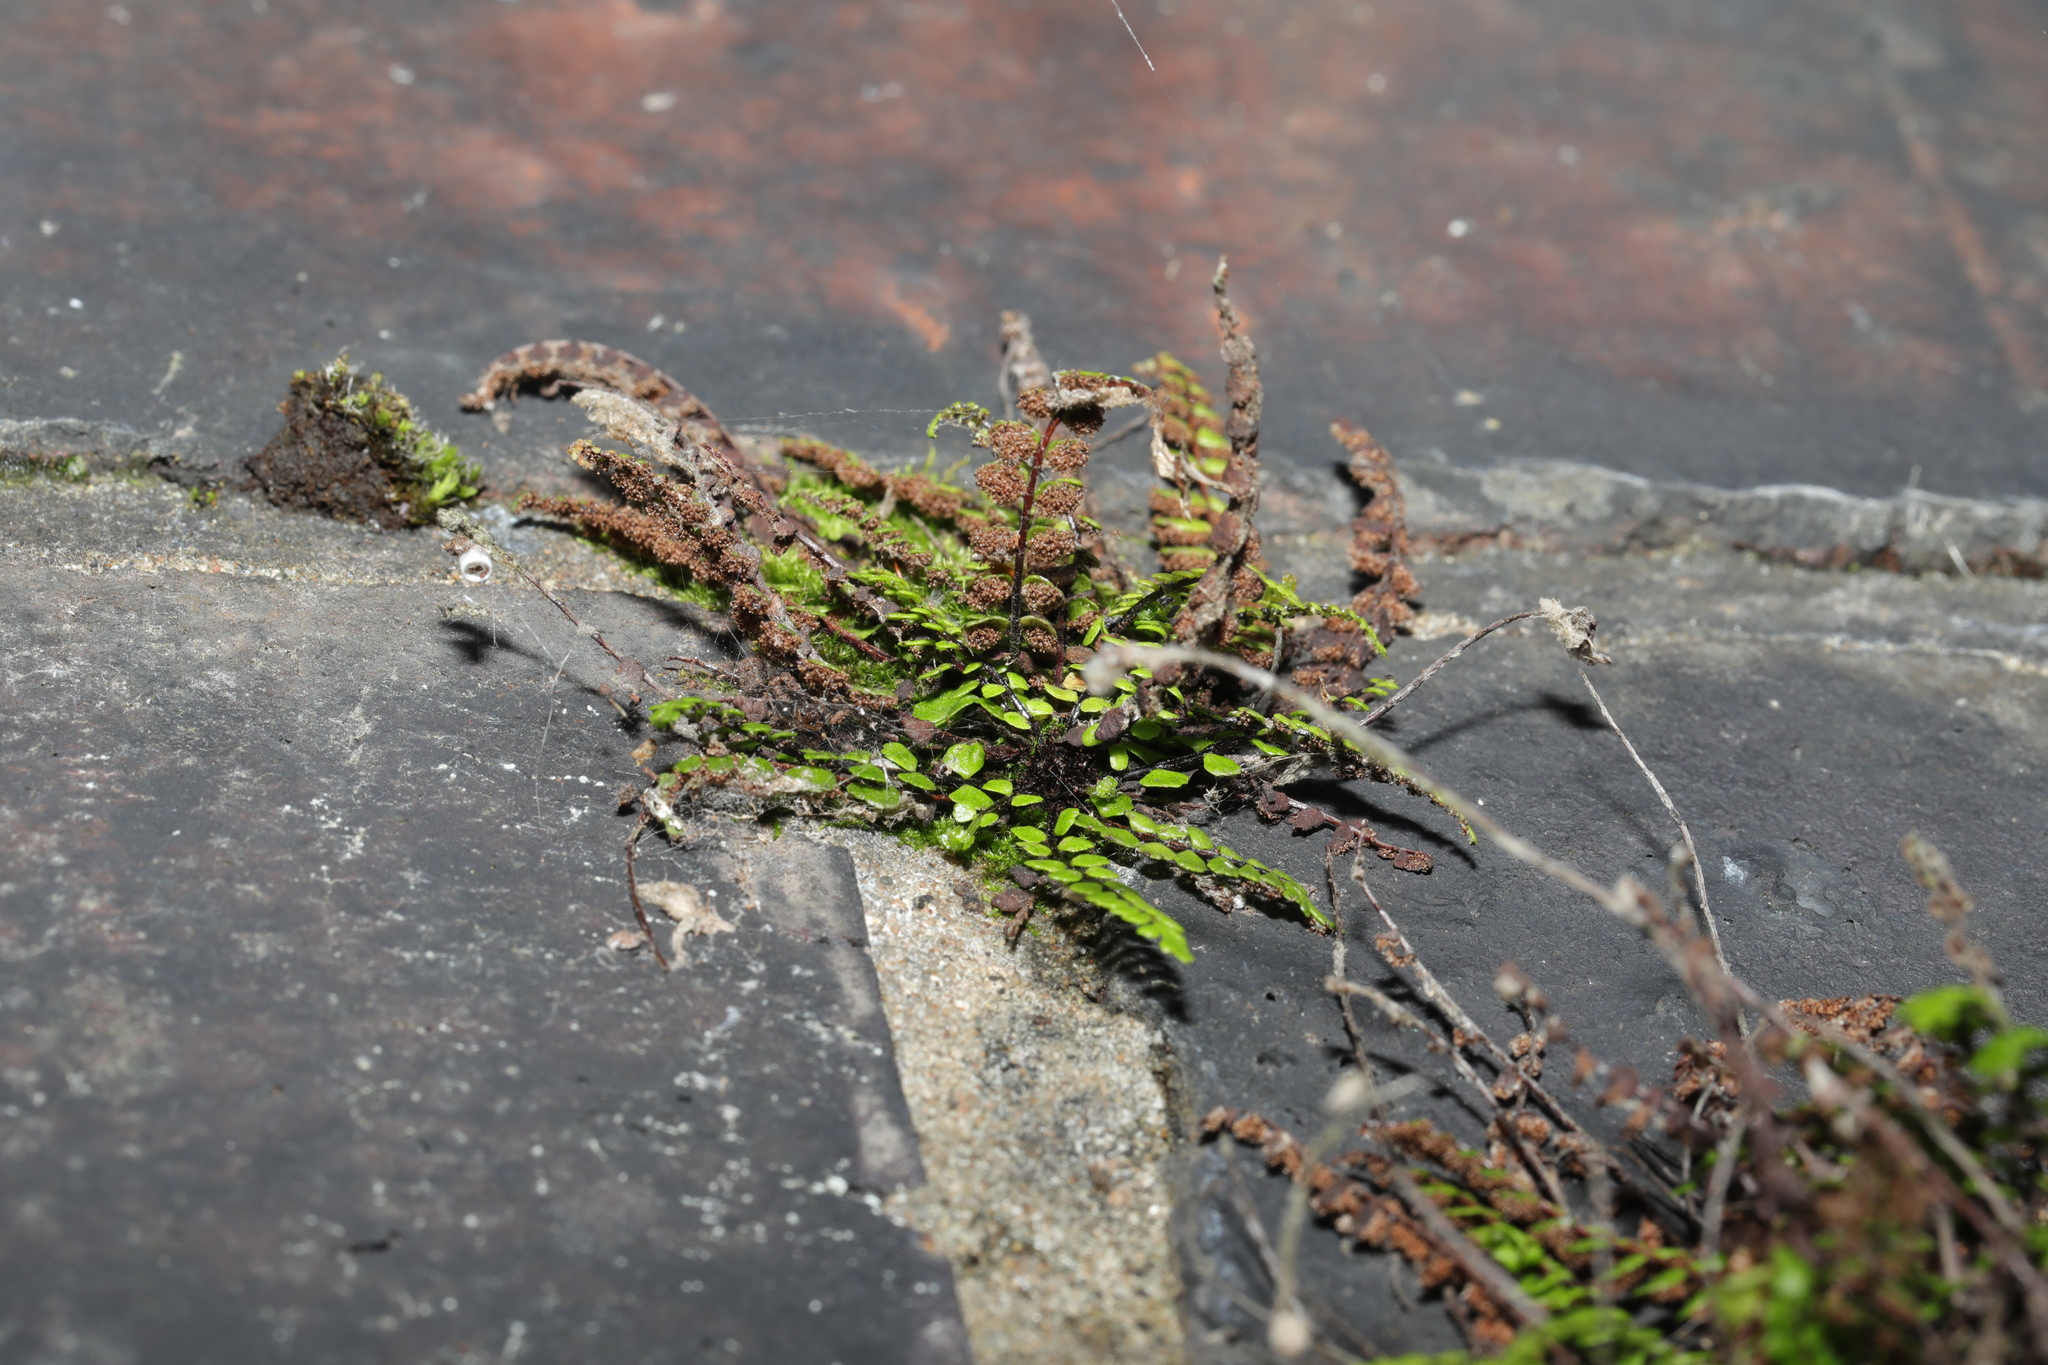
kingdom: Plantae
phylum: Tracheophyta
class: Polypodiopsida
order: Polypodiales
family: Aspleniaceae
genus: Asplenium
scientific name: Asplenium trichomanes
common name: Maidenhair spleenwort
